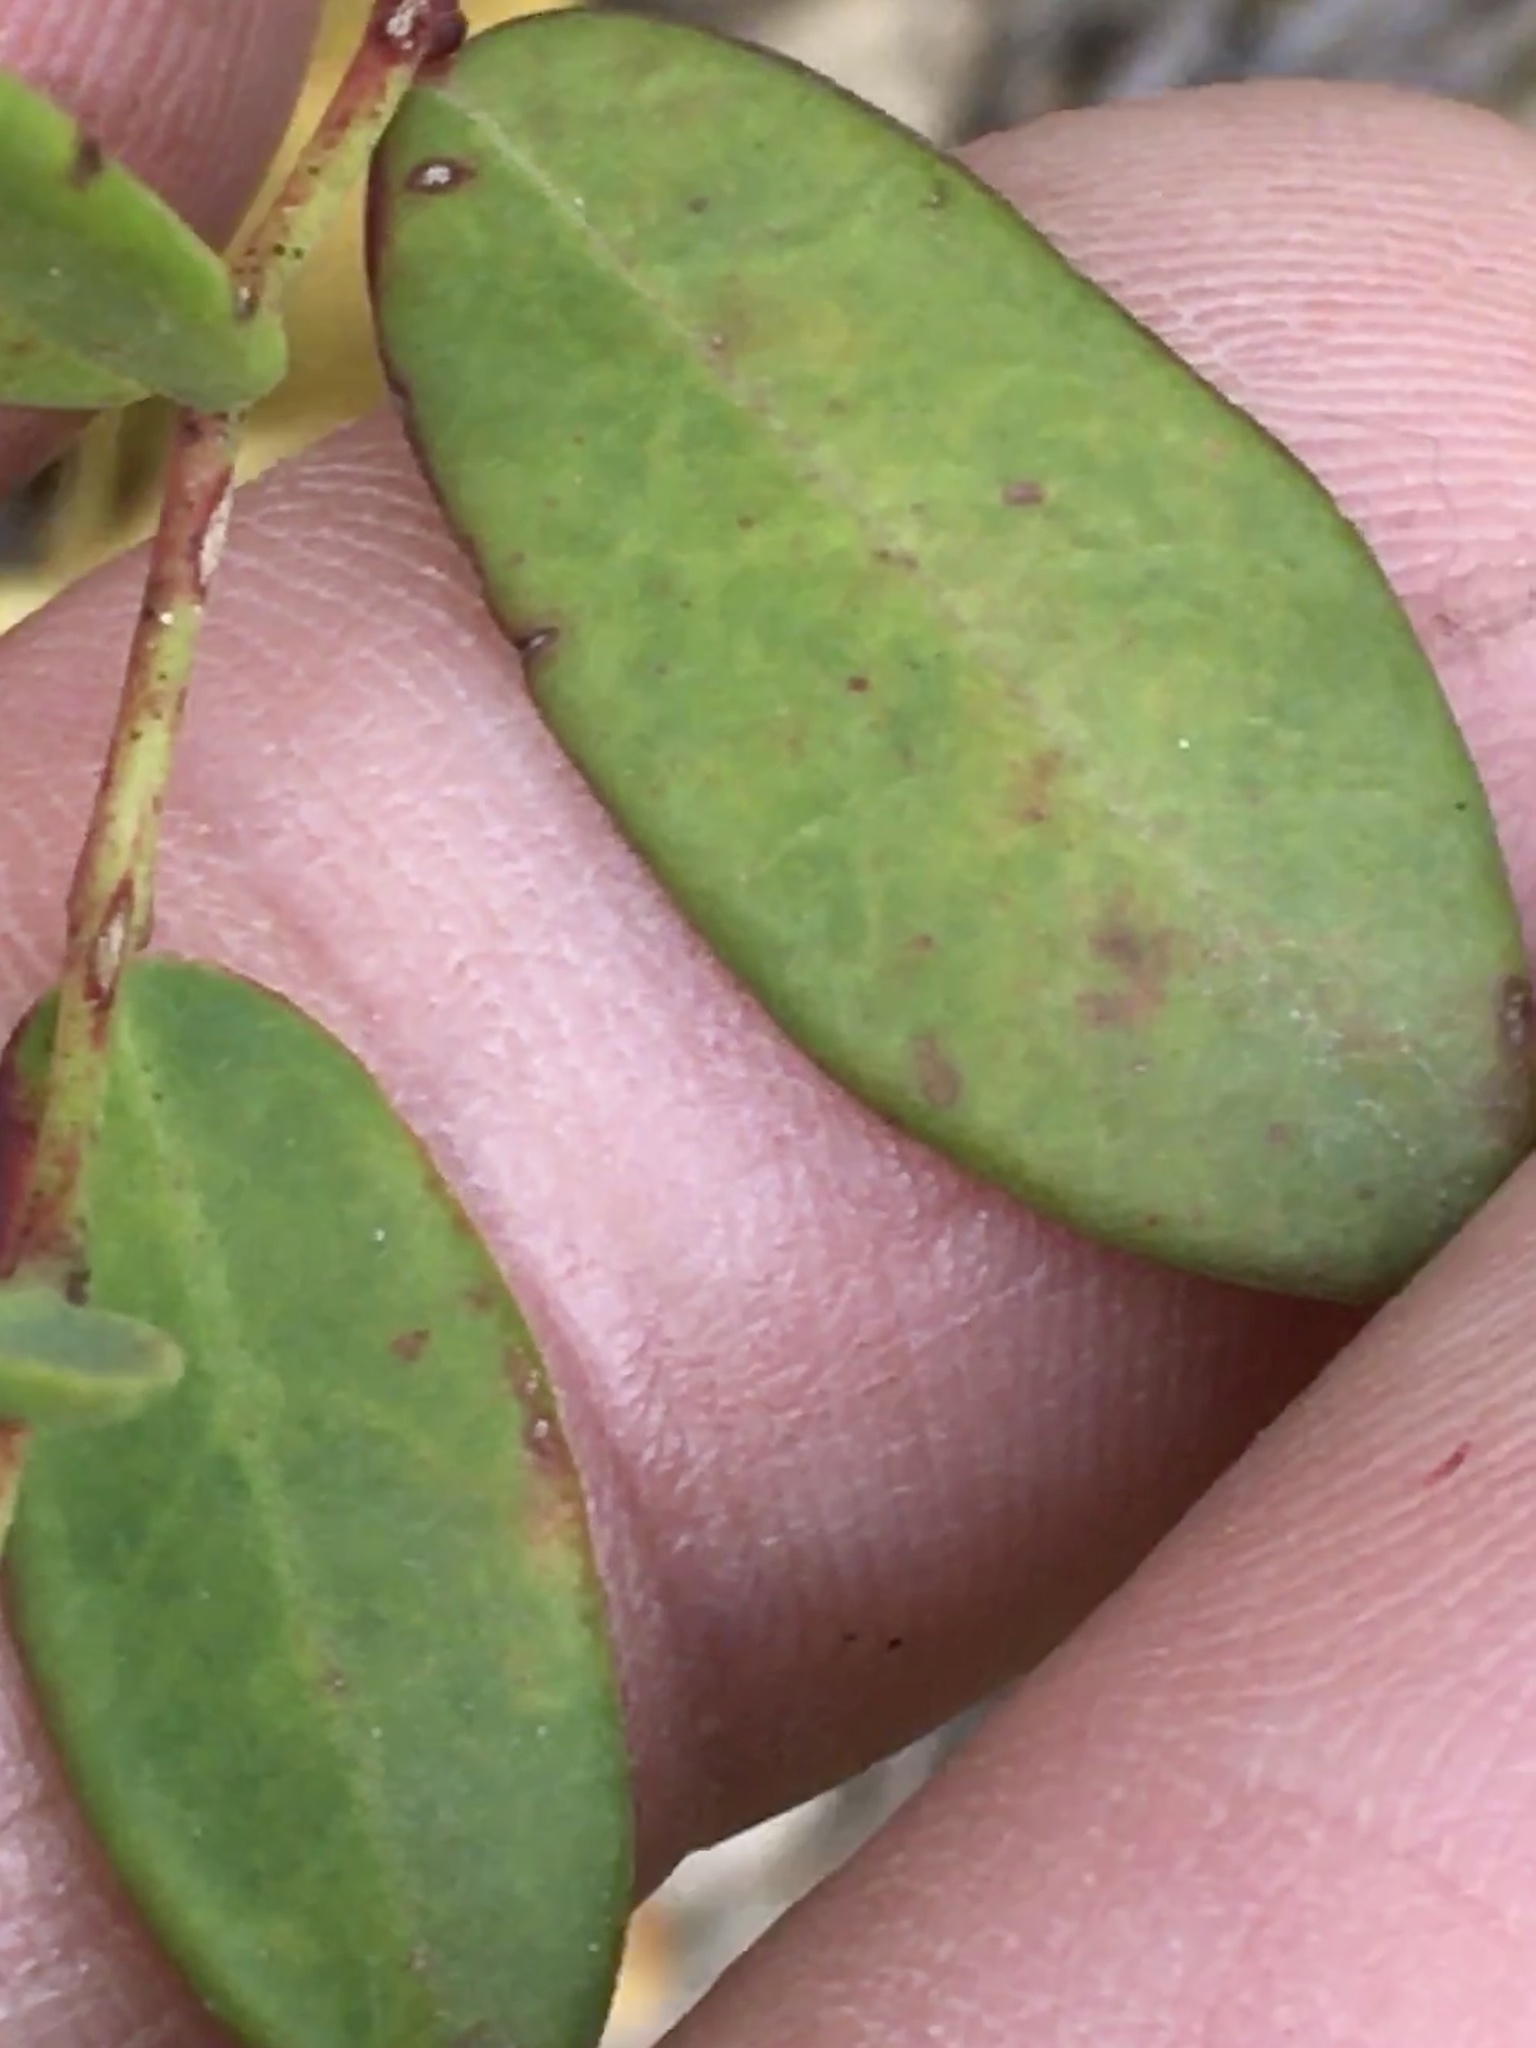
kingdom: Plantae
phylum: Tracheophyta
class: Magnoliopsida
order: Malpighiales
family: Euphorbiaceae
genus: Euphorbia
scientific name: Euphorbia corollata
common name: Flowering spurge
